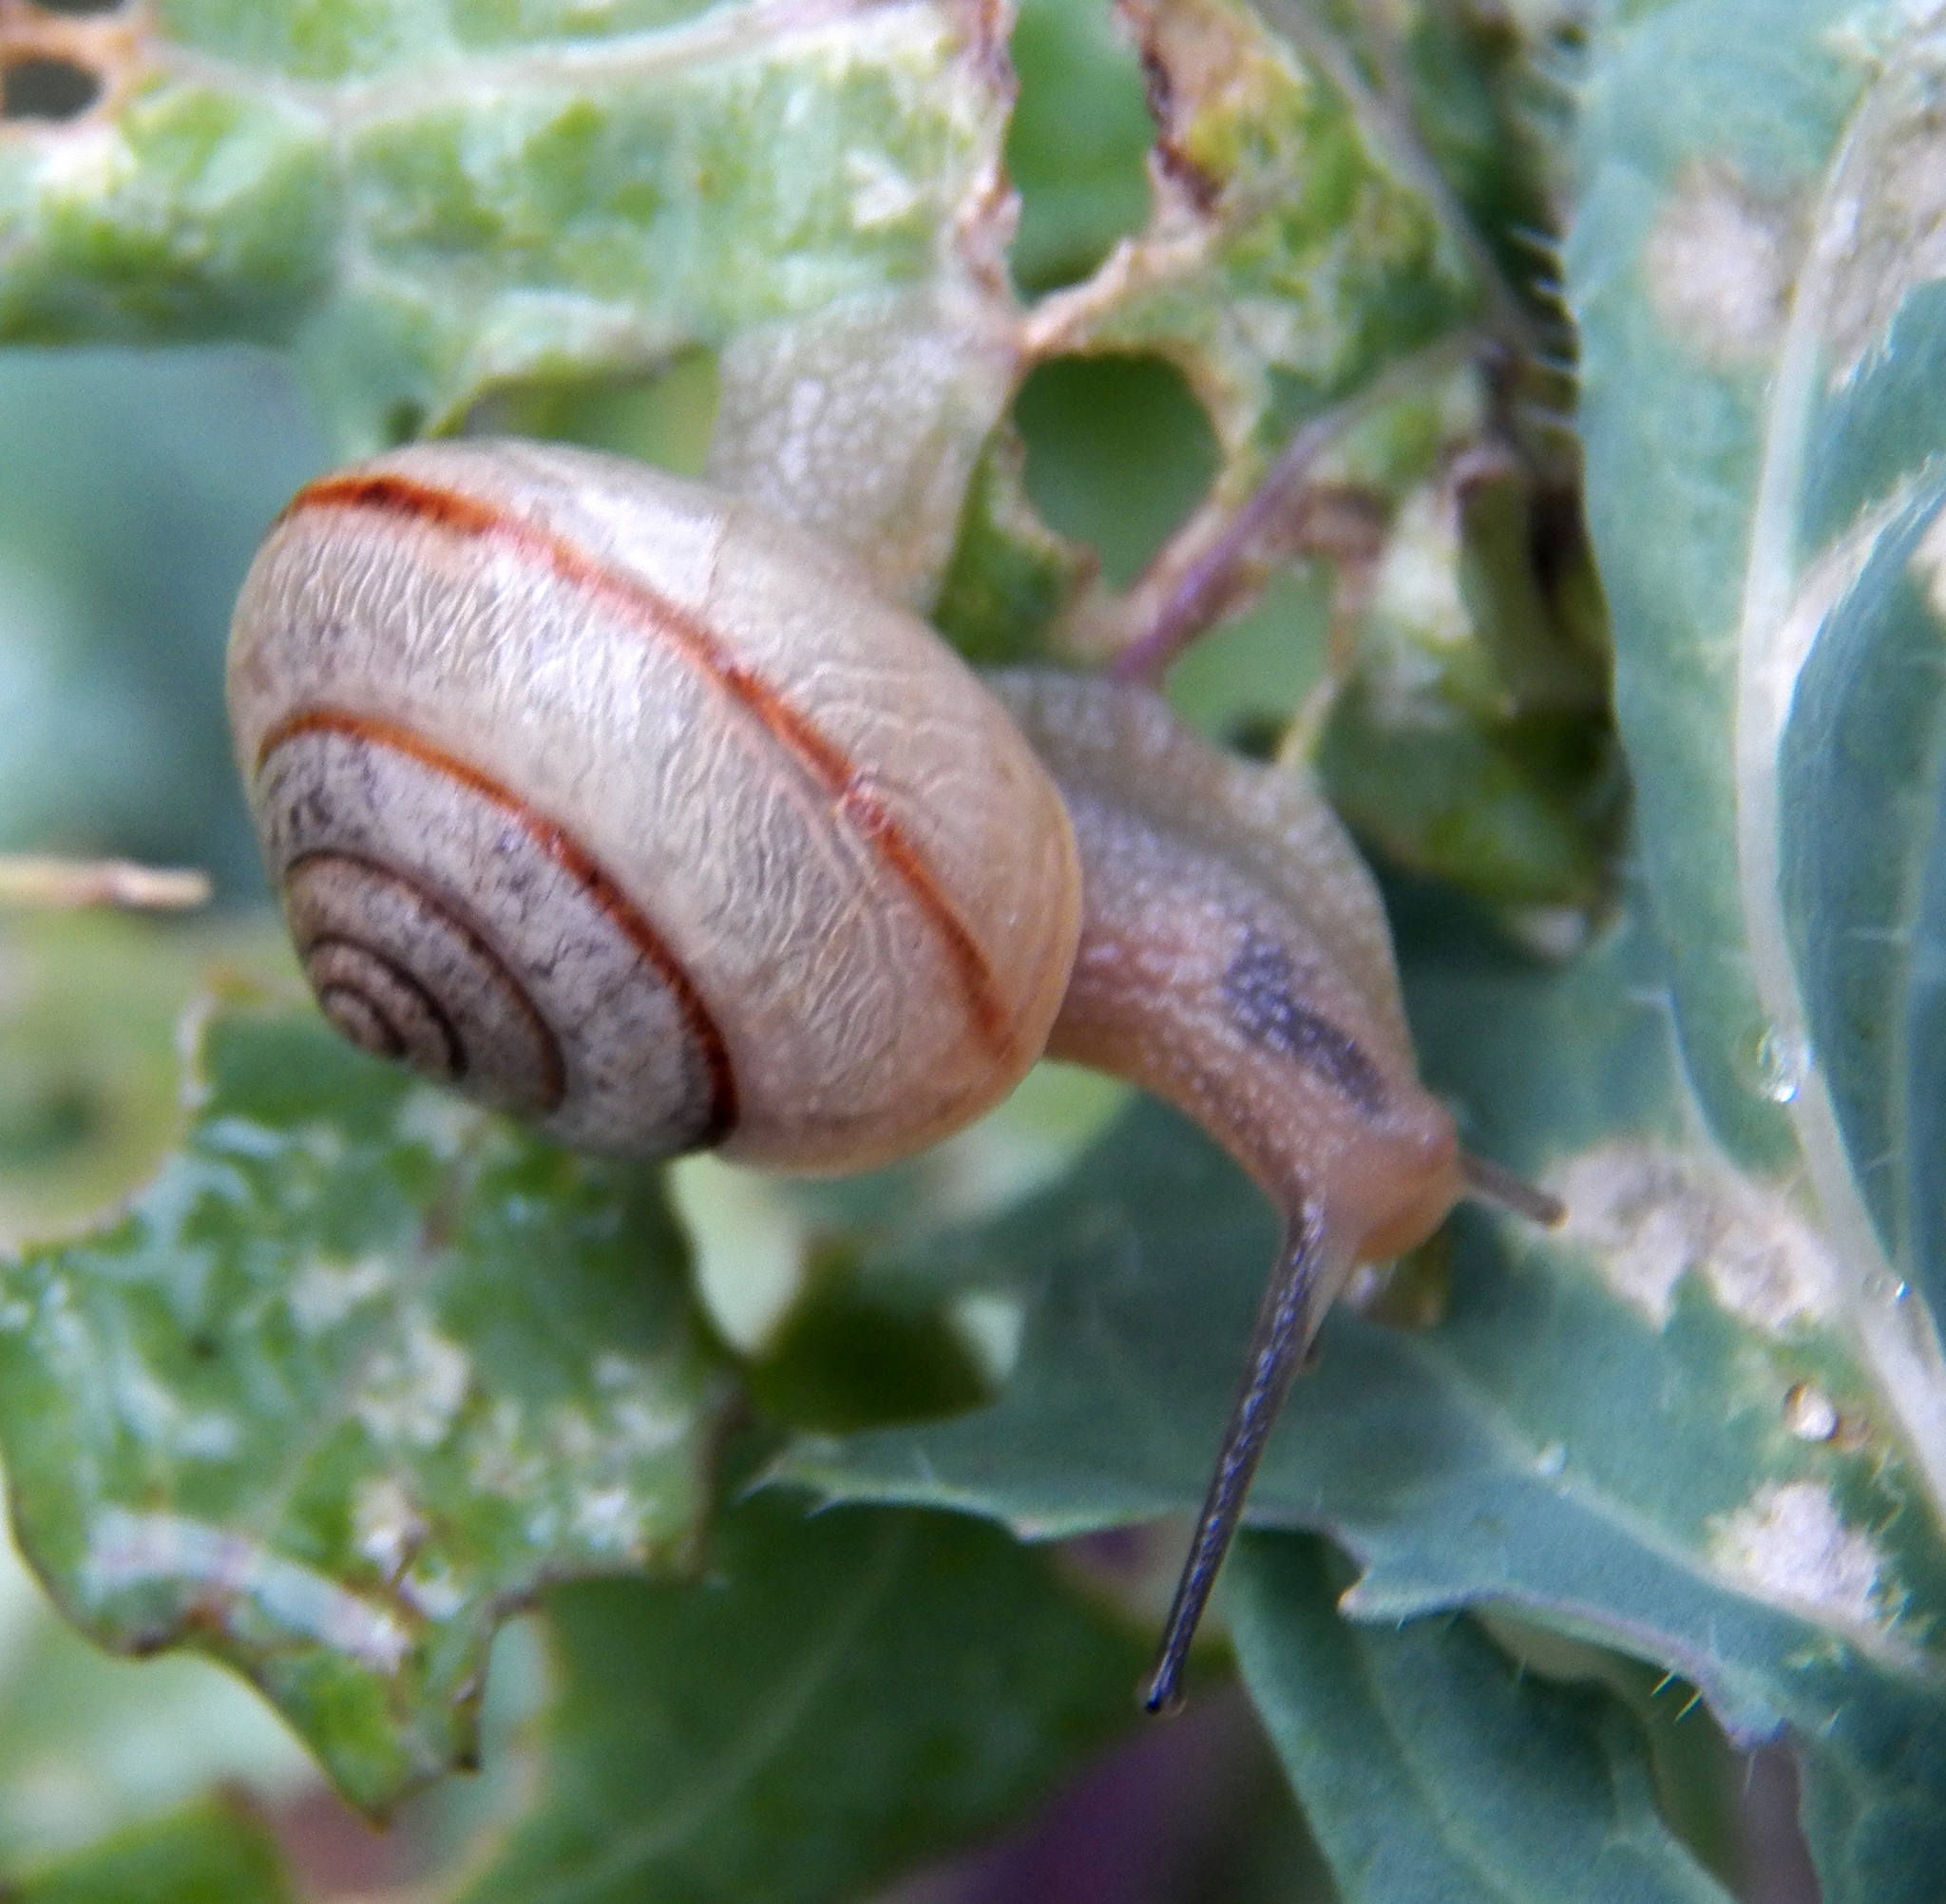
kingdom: Animalia
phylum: Mollusca
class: Gastropoda
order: Stylommatophora
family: Camaenidae
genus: Bradybaena
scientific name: Bradybaena similaris
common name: Asian trampsnail
